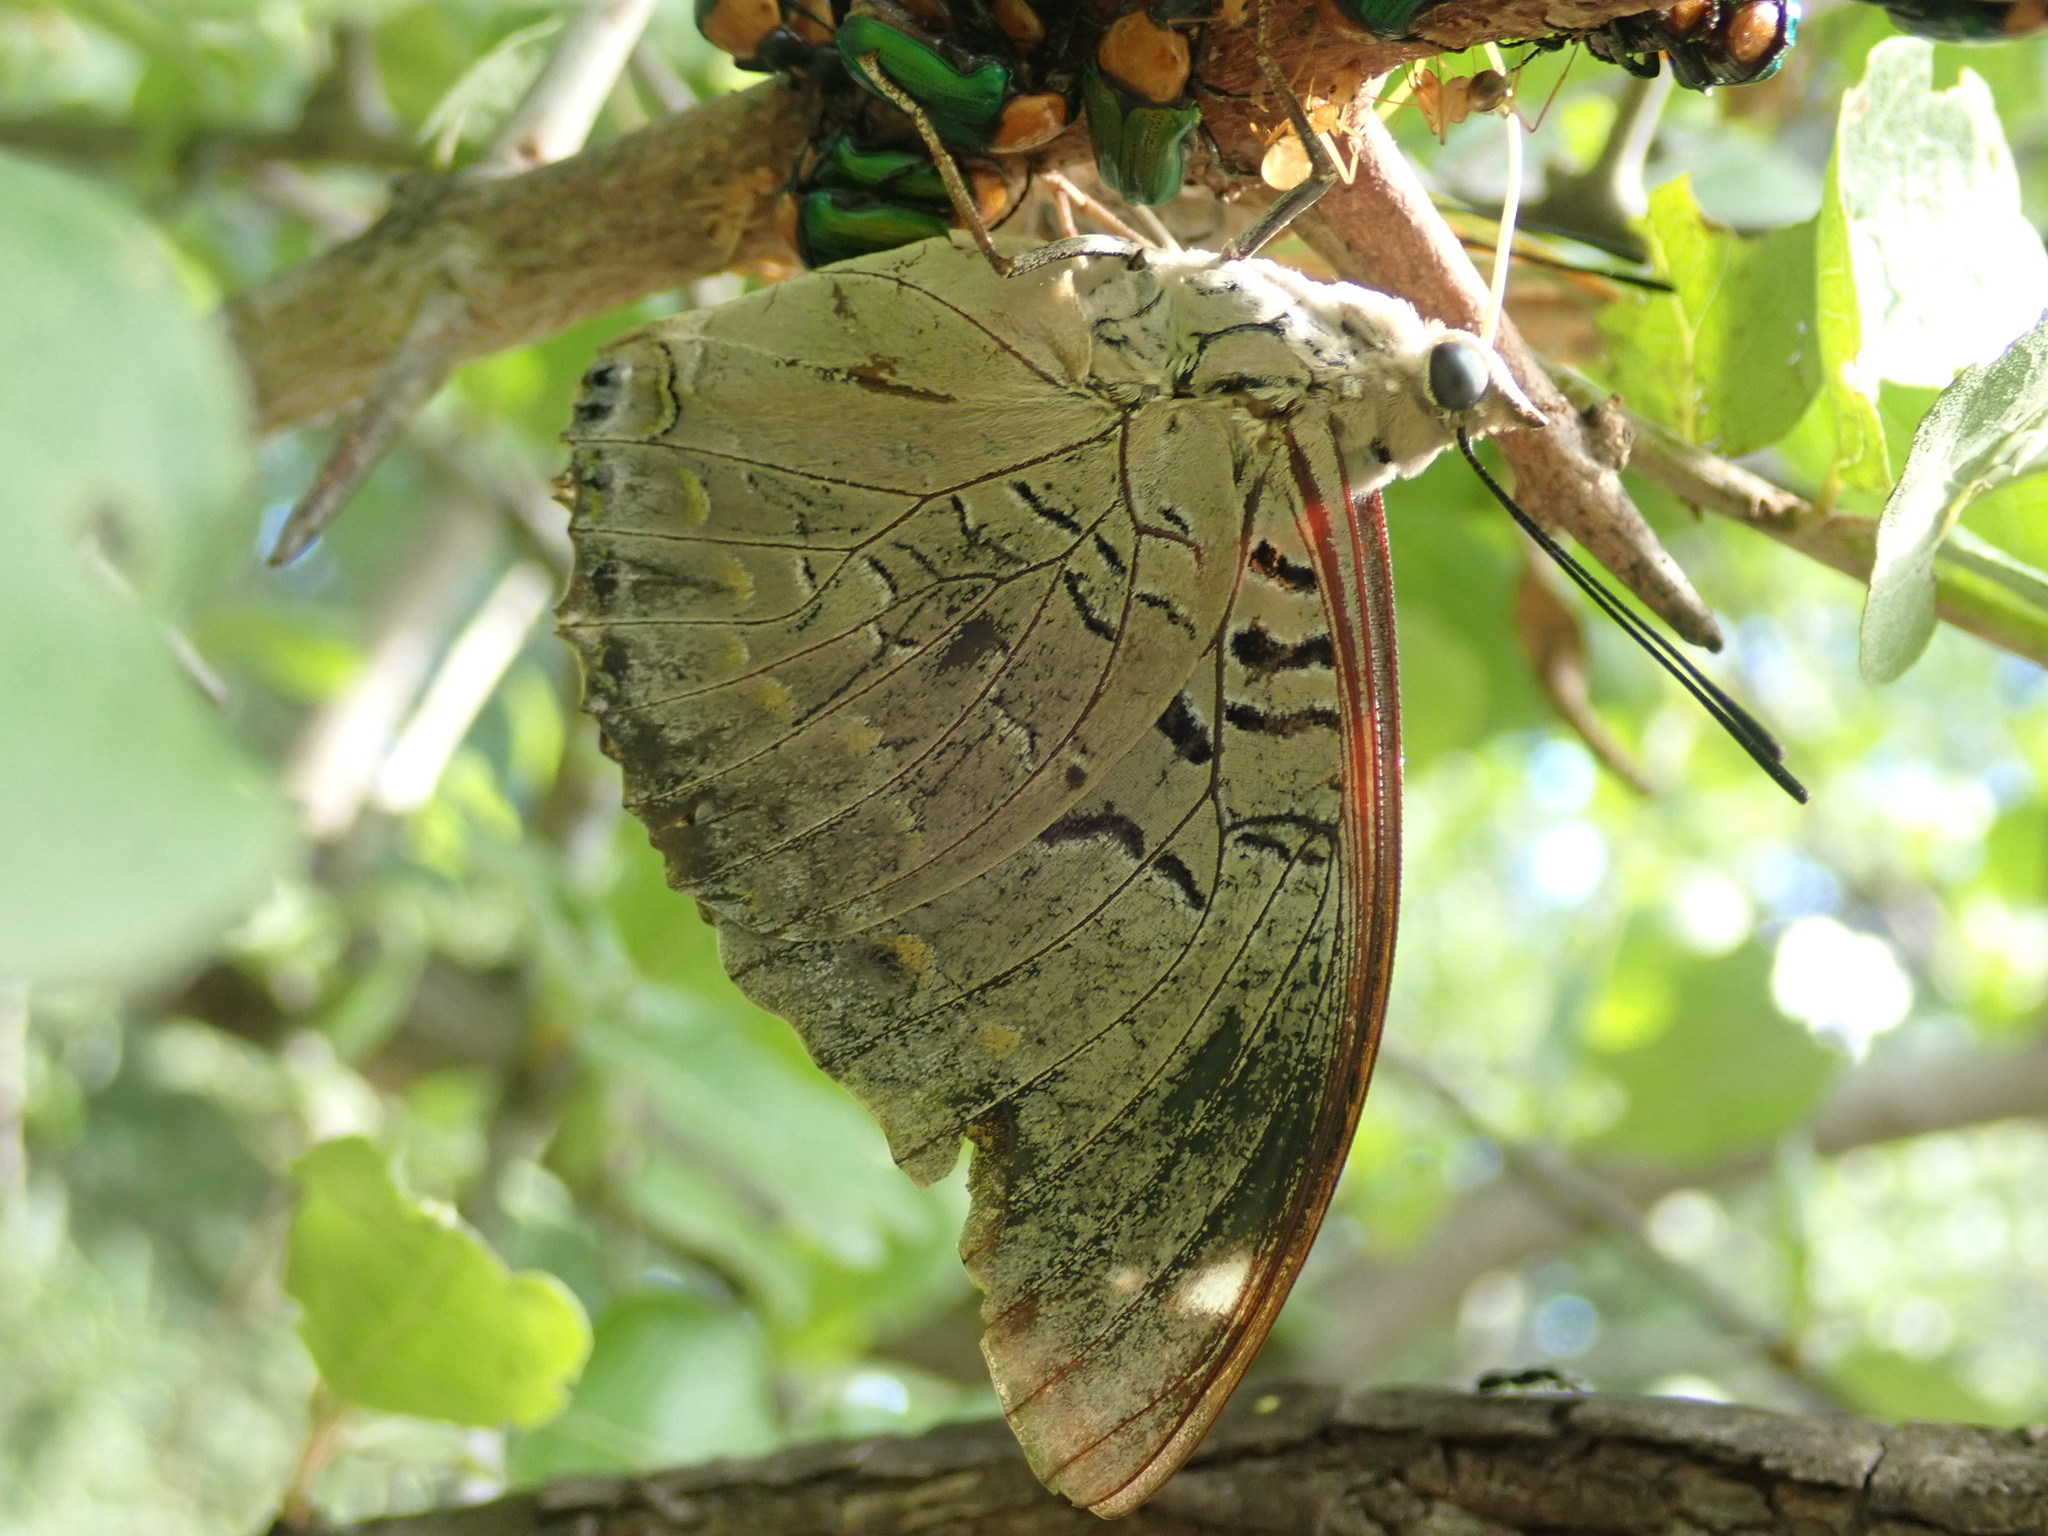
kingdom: Animalia
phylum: Arthropoda
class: Insecta
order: Lepidoptera
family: Nymphalidae
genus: Charaxes
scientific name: Charaxes bohemani
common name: Large blue charaxes
